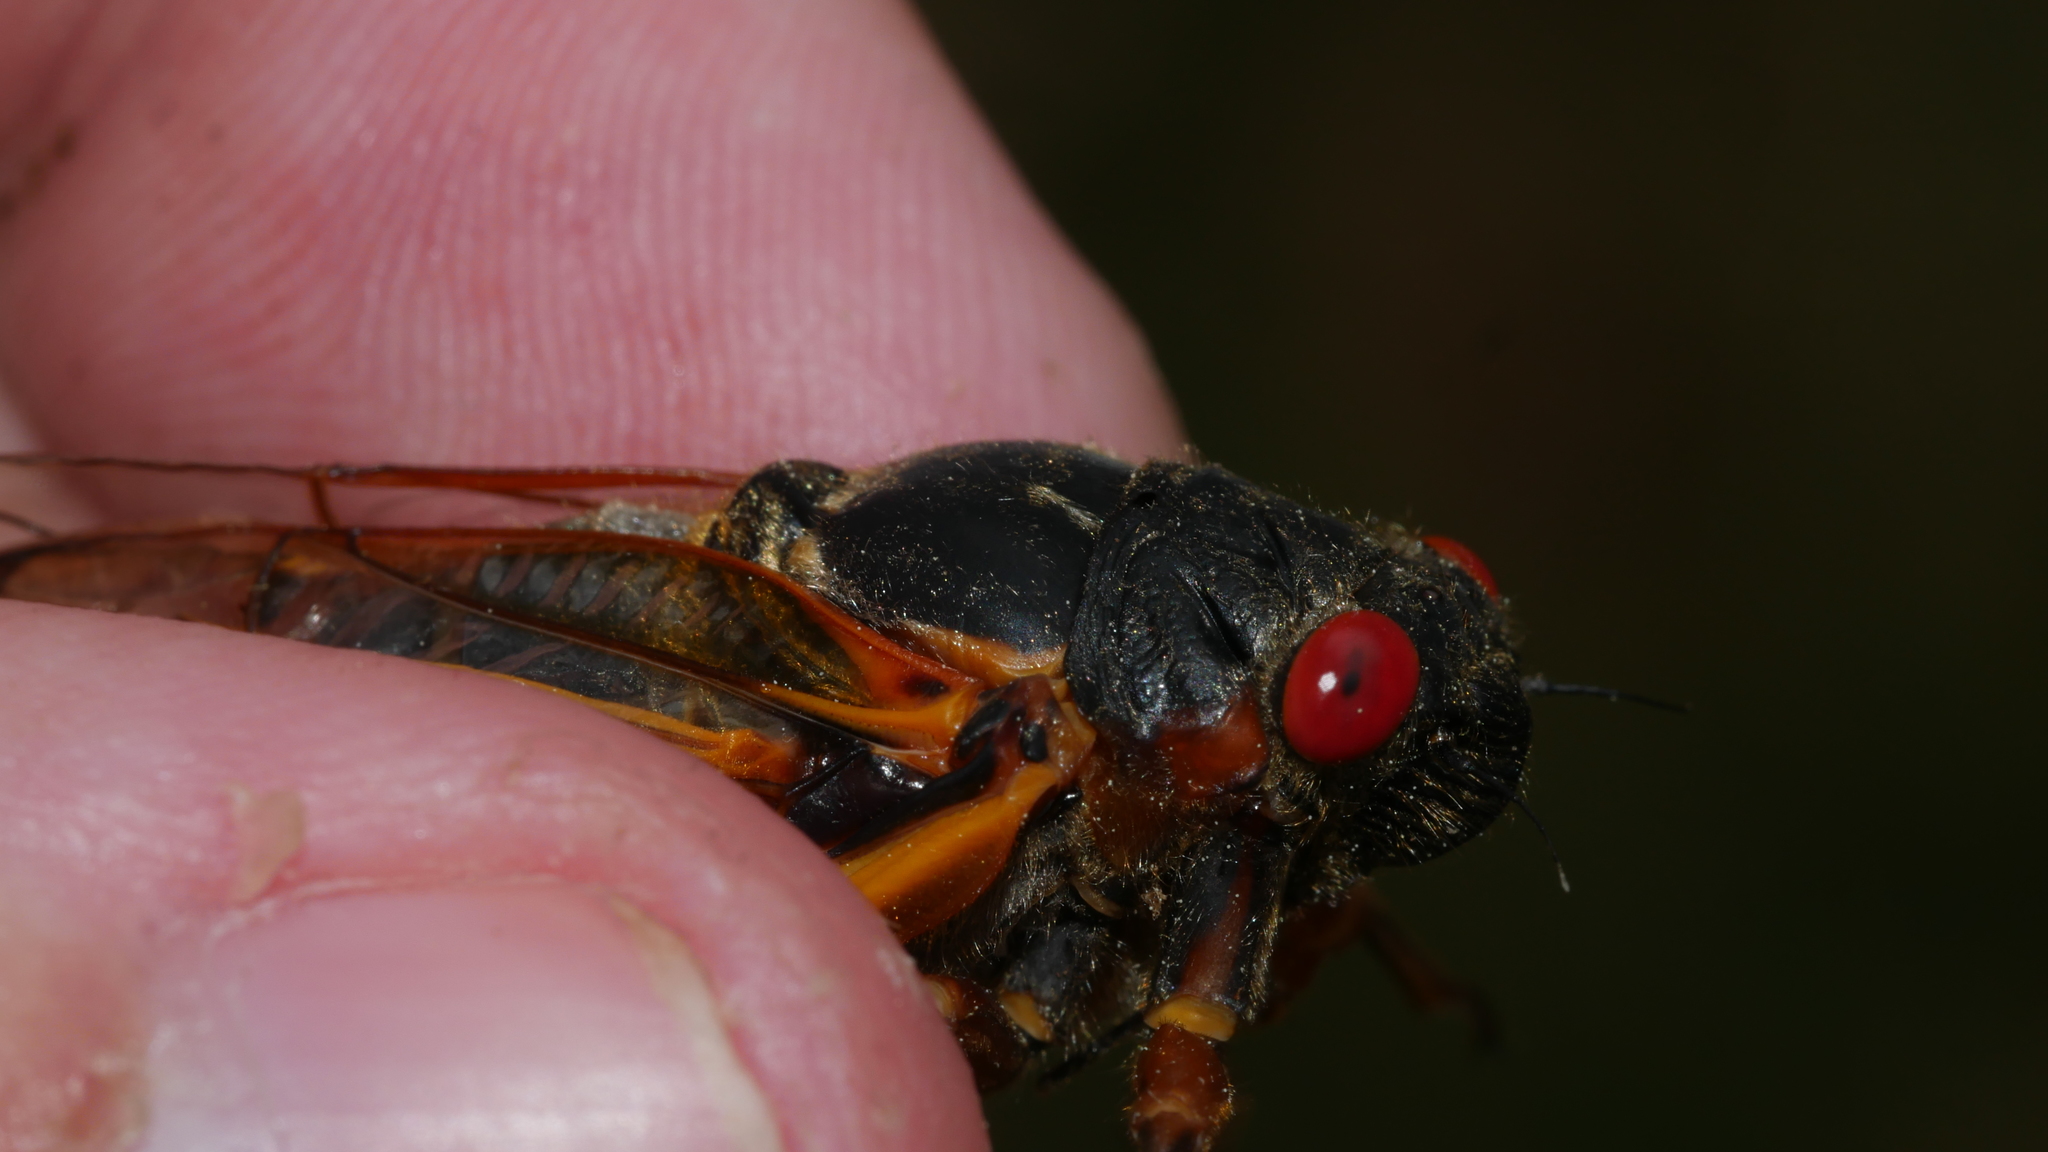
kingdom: Animalia
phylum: Arthropoda
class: Insecta
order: Hemiptera
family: Cicadidae
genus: Magicicada
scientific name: Magicicada septendecim
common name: Periodical cicada
